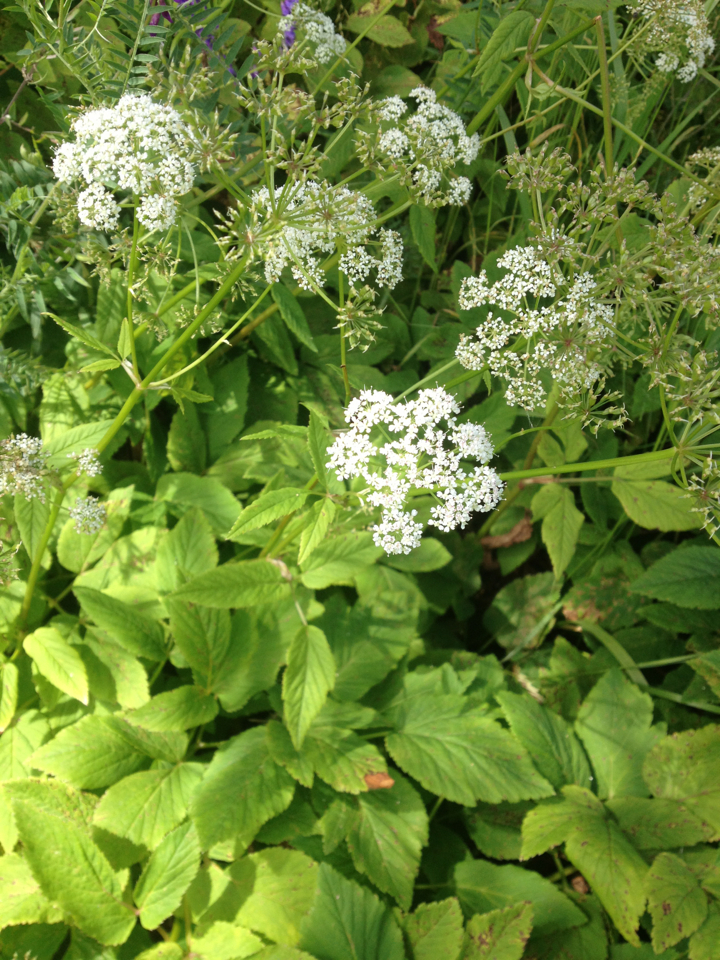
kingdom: Plantae
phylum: Tracheophyta
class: Magnoliopsida
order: Apiales
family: Apiaceae
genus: Aegopodium
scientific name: Aegopodium podagraria
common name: Ground-elder
